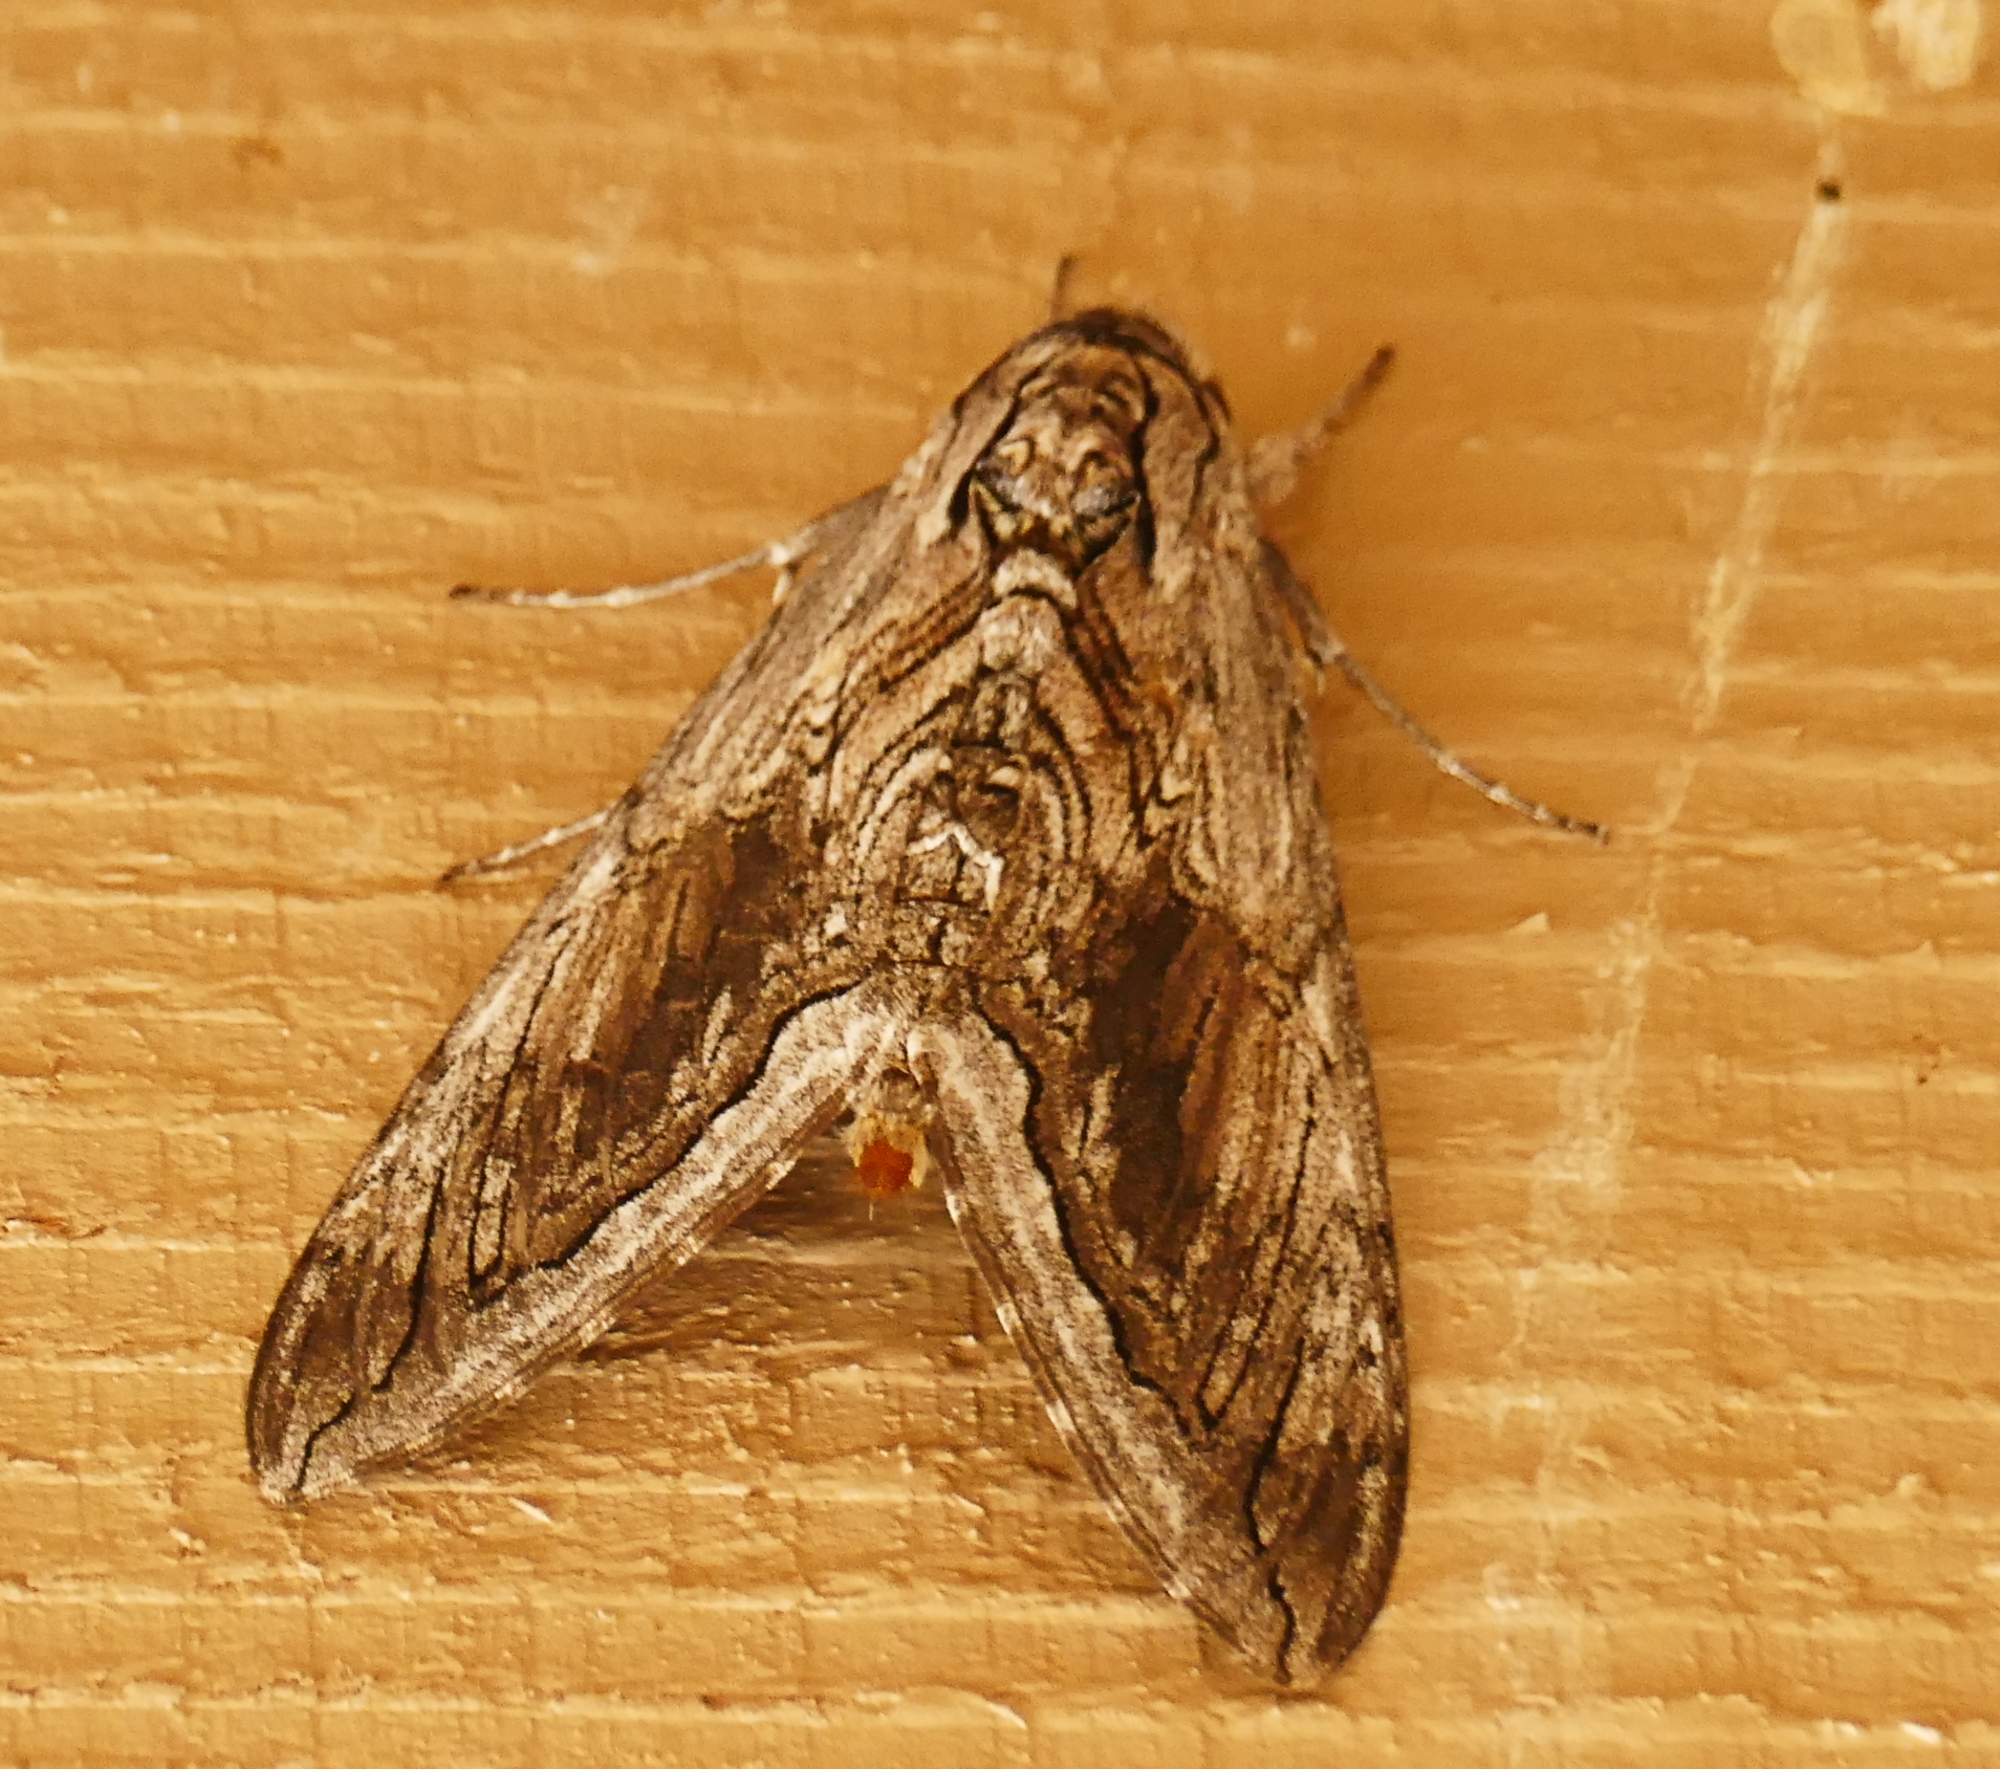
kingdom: Animalia
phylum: Arthropoda
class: Insecta
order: Lepidoptera
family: Sphingidae
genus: Manduca
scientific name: Manduca quinquemaculatus
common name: Five-spotted hawk-moth
